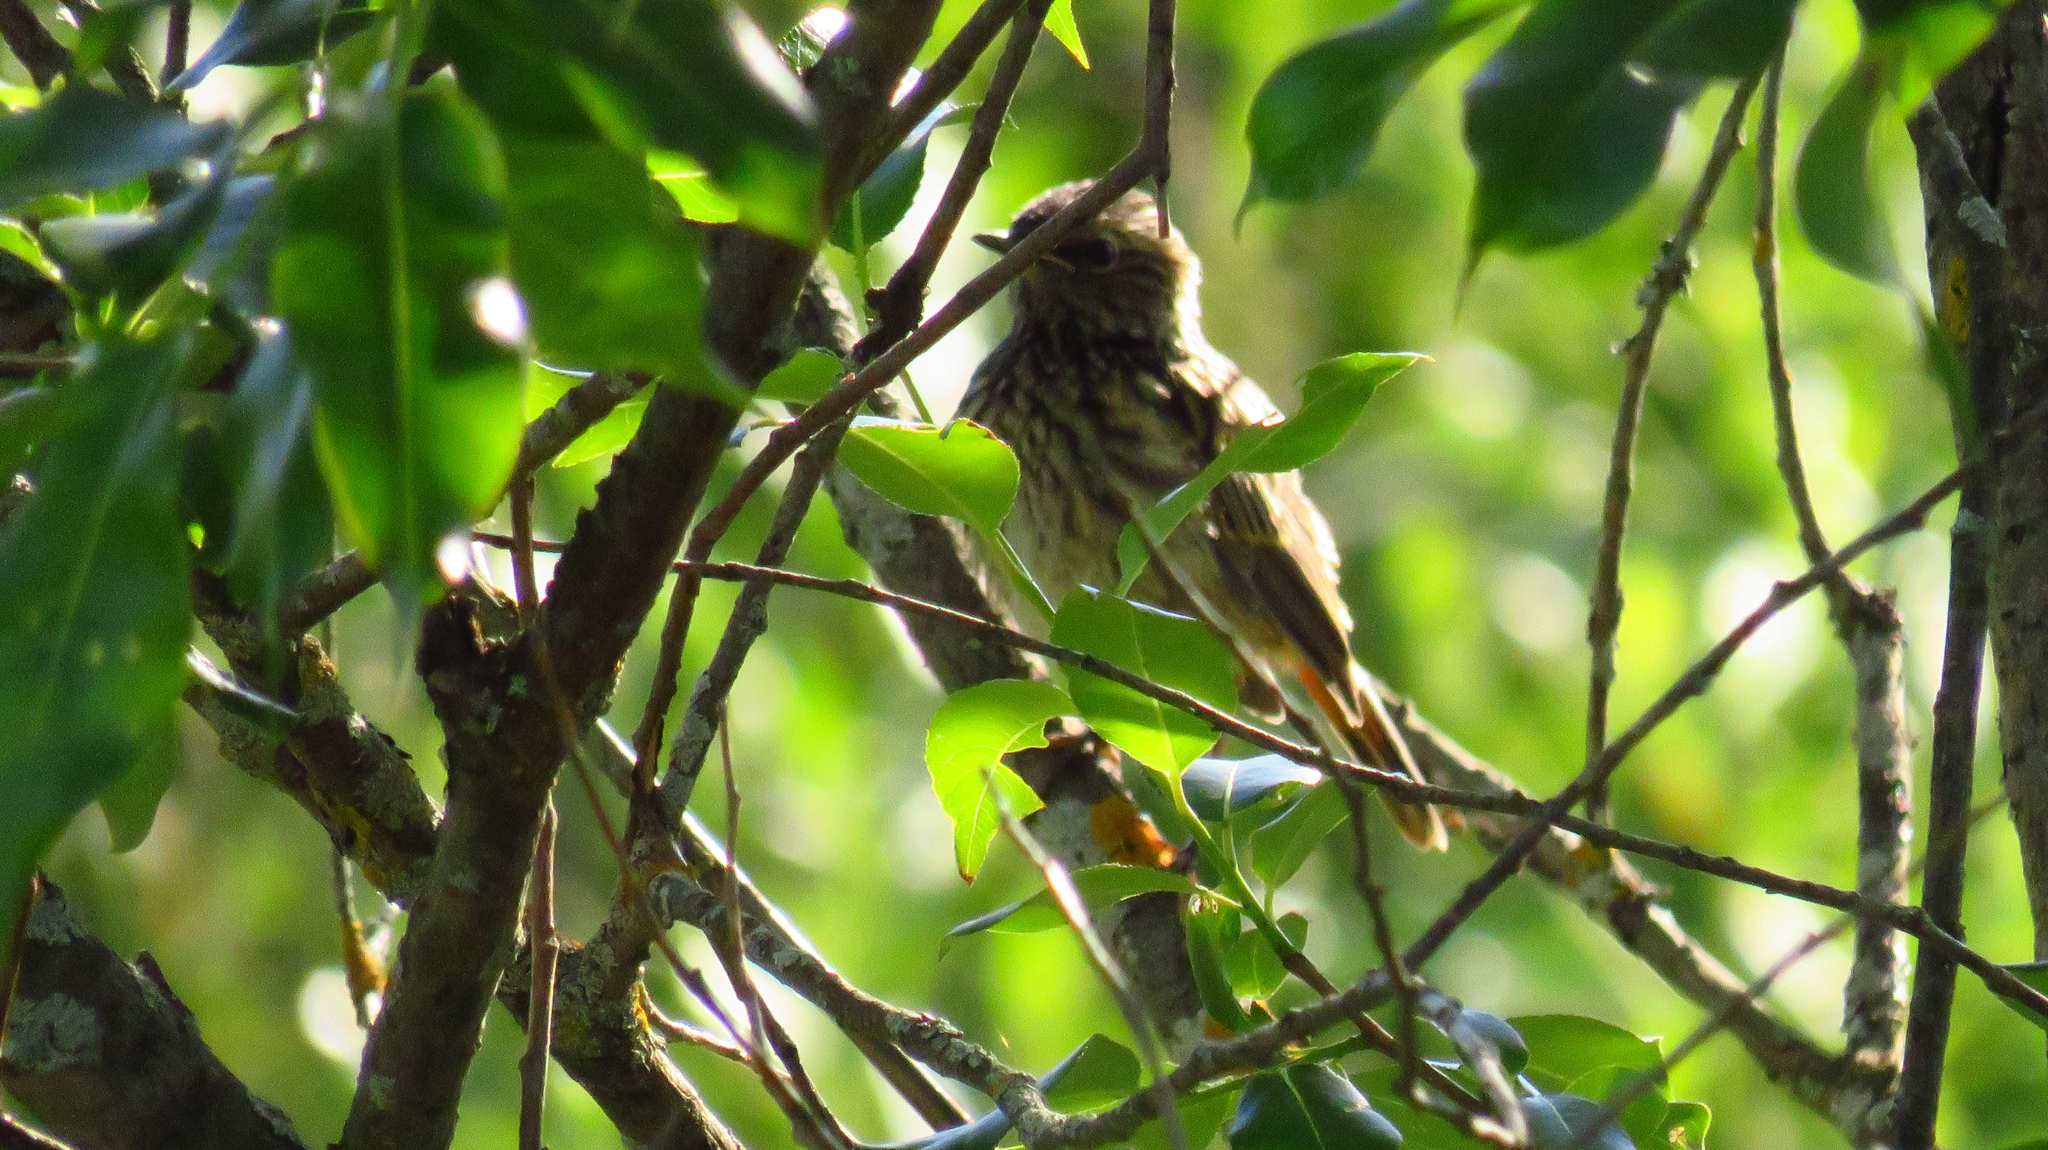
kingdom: Animalia
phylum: Chordata
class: Aves
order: Passeriformes
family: Muscicapidae
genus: Luscinia
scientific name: Luscinia svecica
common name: Bluethroat
